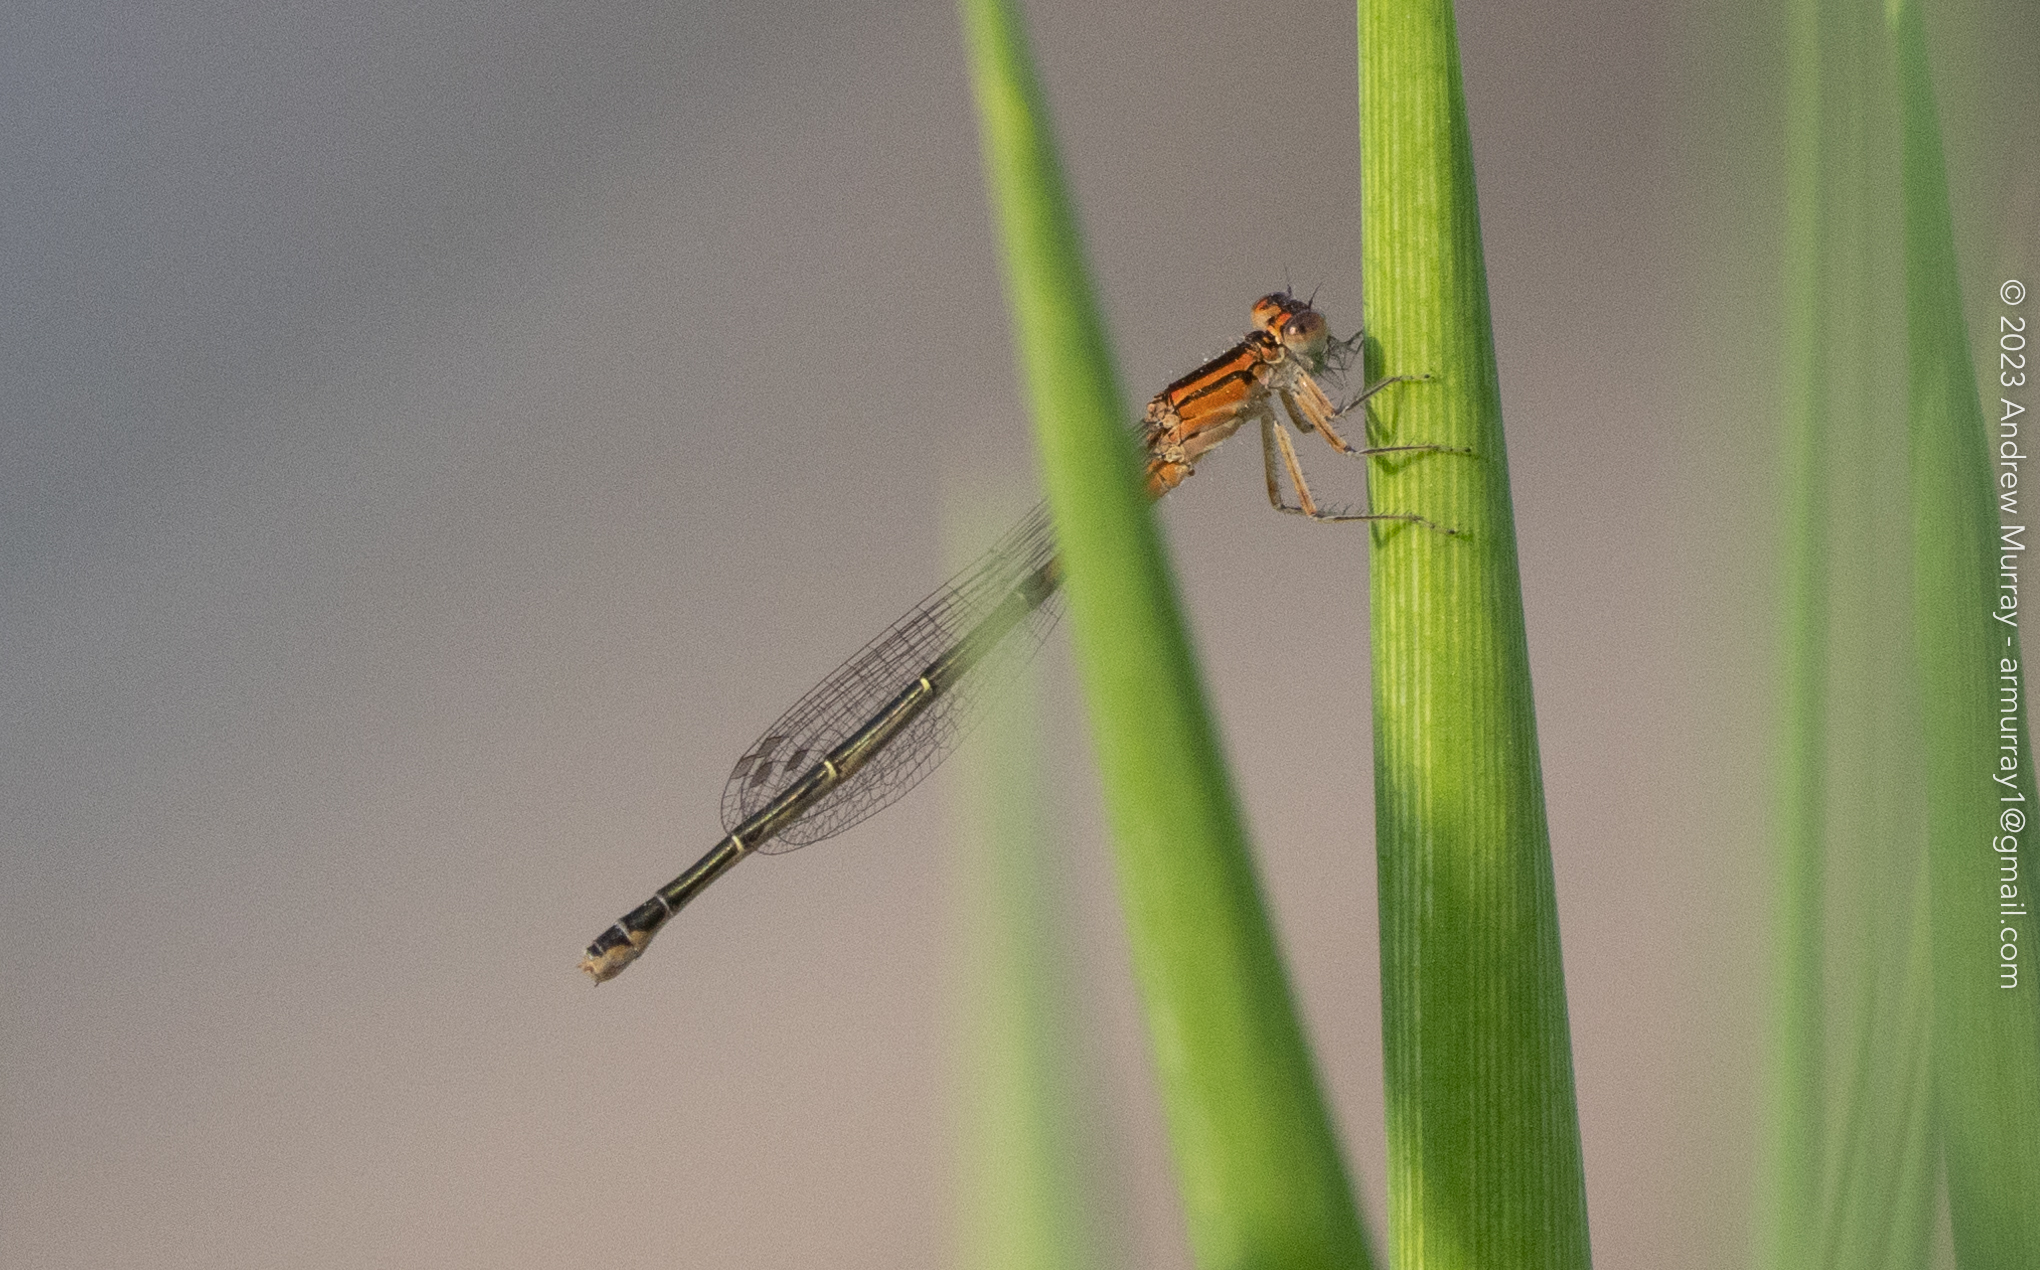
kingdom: Animalia
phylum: Arthropoda
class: Insecta
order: Odonata
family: Coenagrionidae
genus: Ischnura
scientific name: Ischnura verticalis
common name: Eastern forktail
